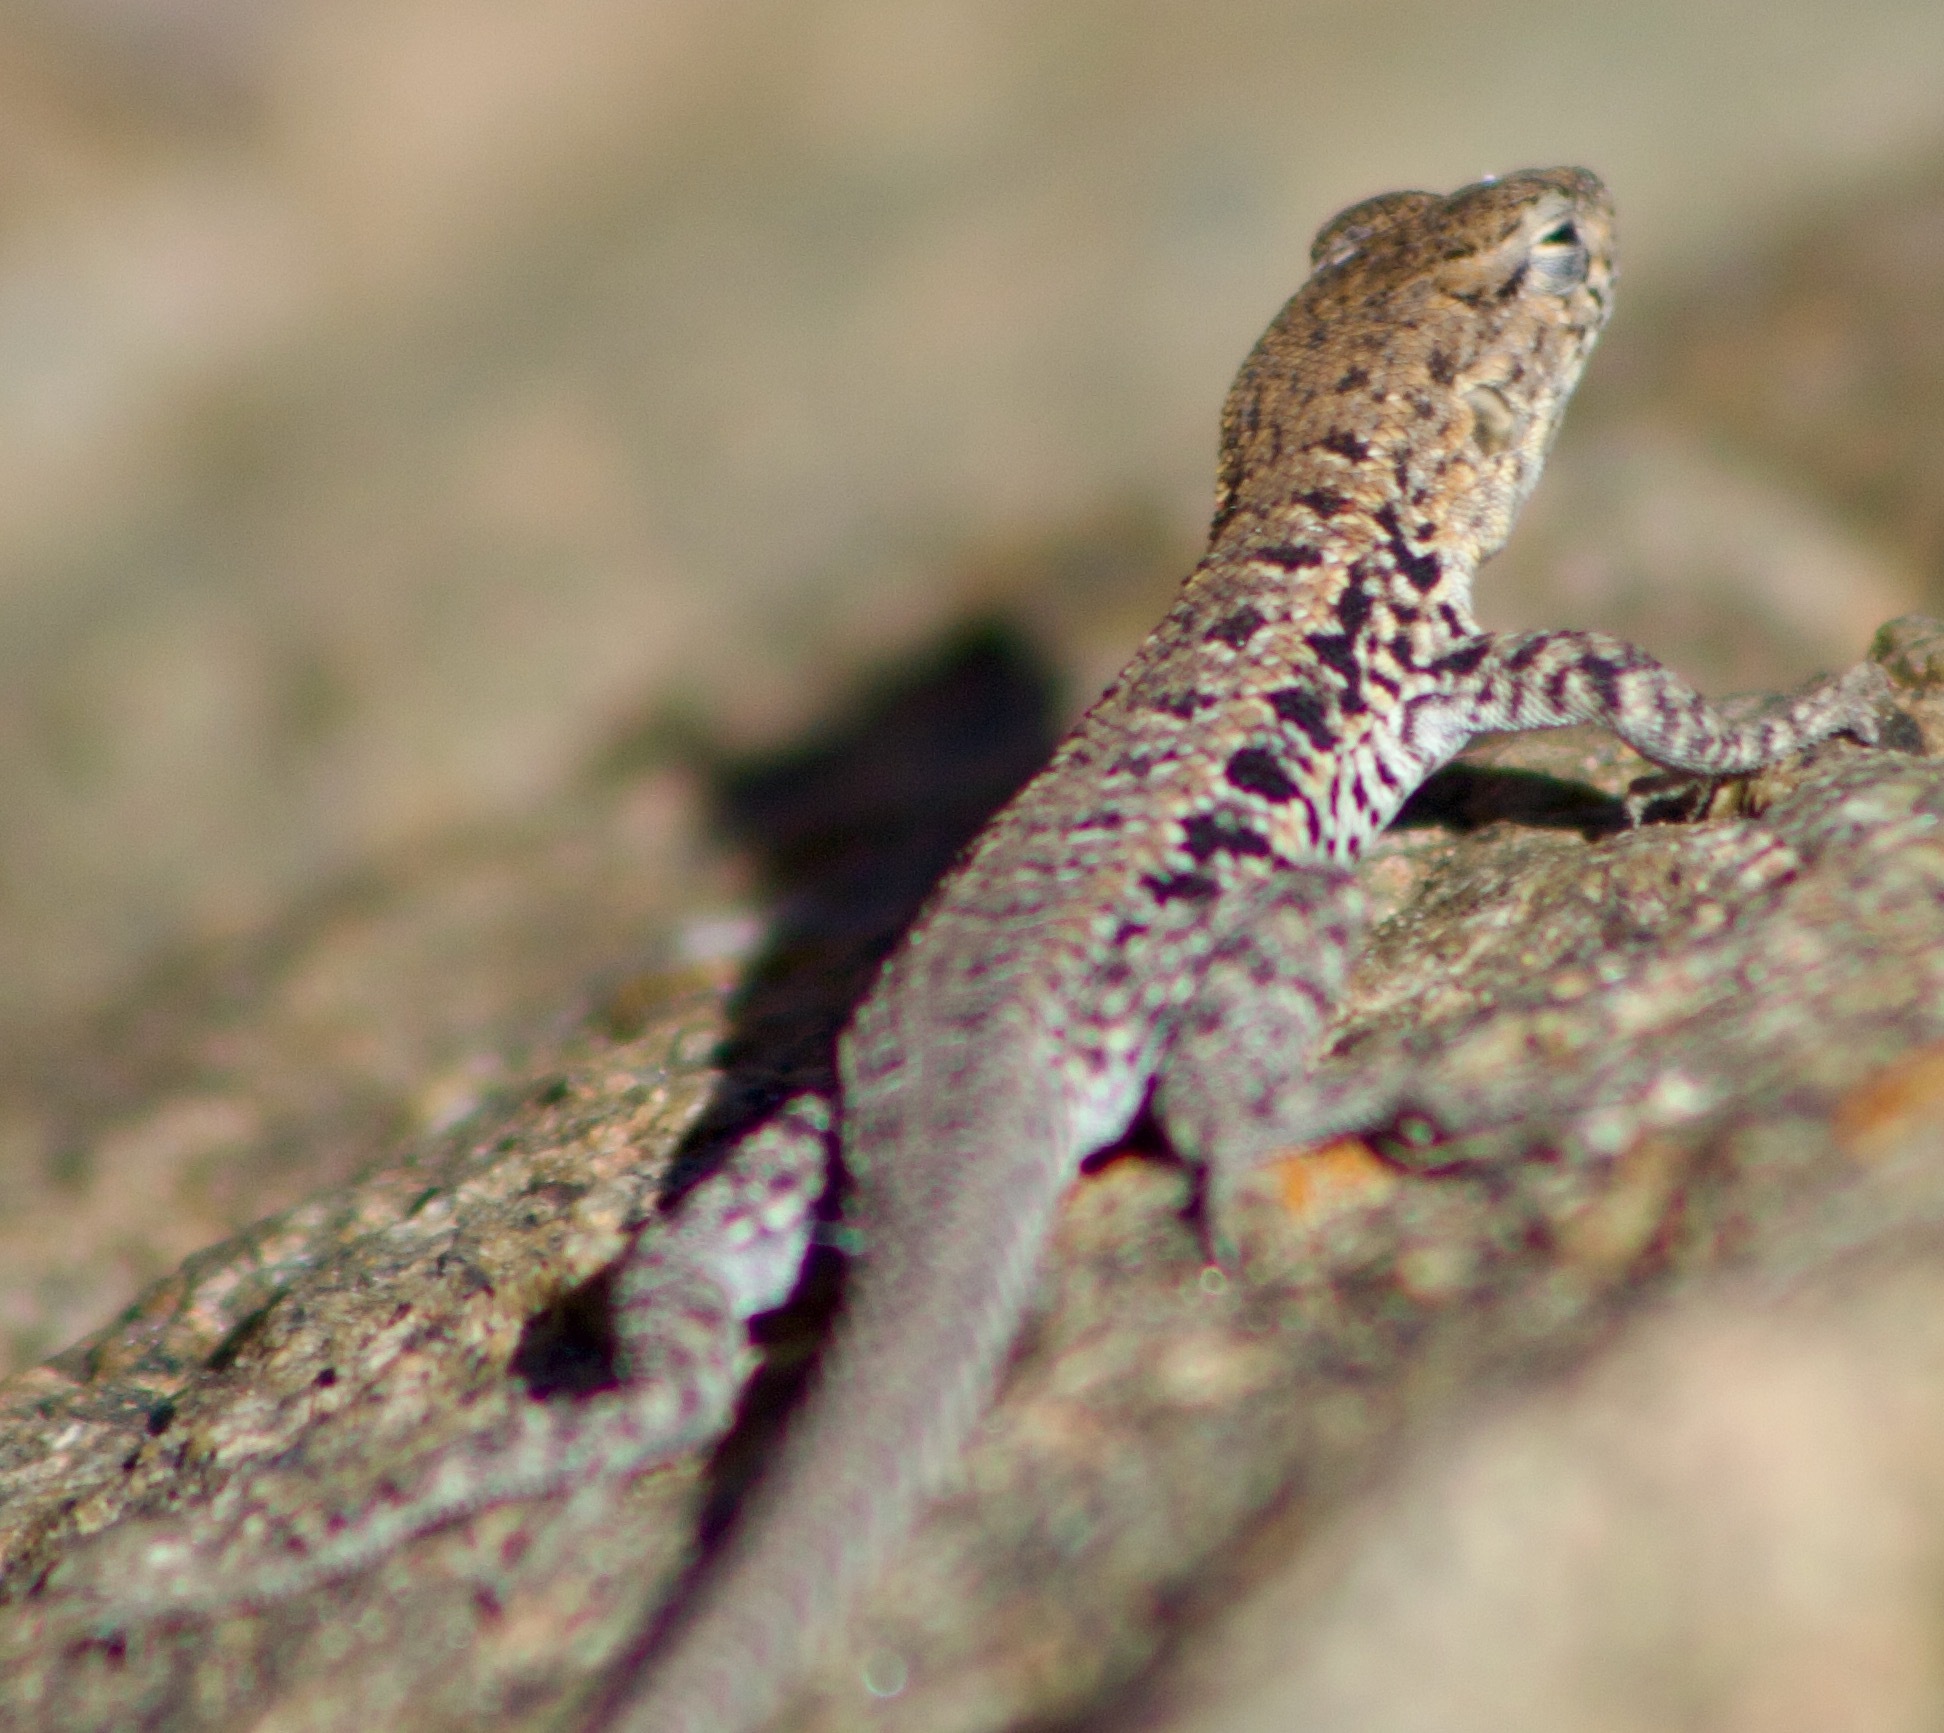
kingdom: Animalia
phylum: Chordata
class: Squamata
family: Liolaemidae
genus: Liolaemus
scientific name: Liolaemus platei
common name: Braided tree iguana
